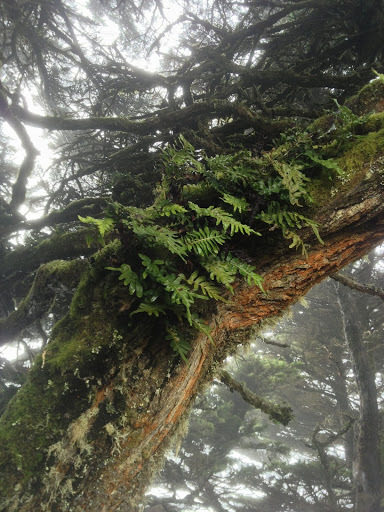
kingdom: Plantae
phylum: Tracheophyta
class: Polypodiopsida
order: Polypodiales
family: Polypodiaceae
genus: Polypodium
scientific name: Polypodium scouleri
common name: Scouler's polypody
